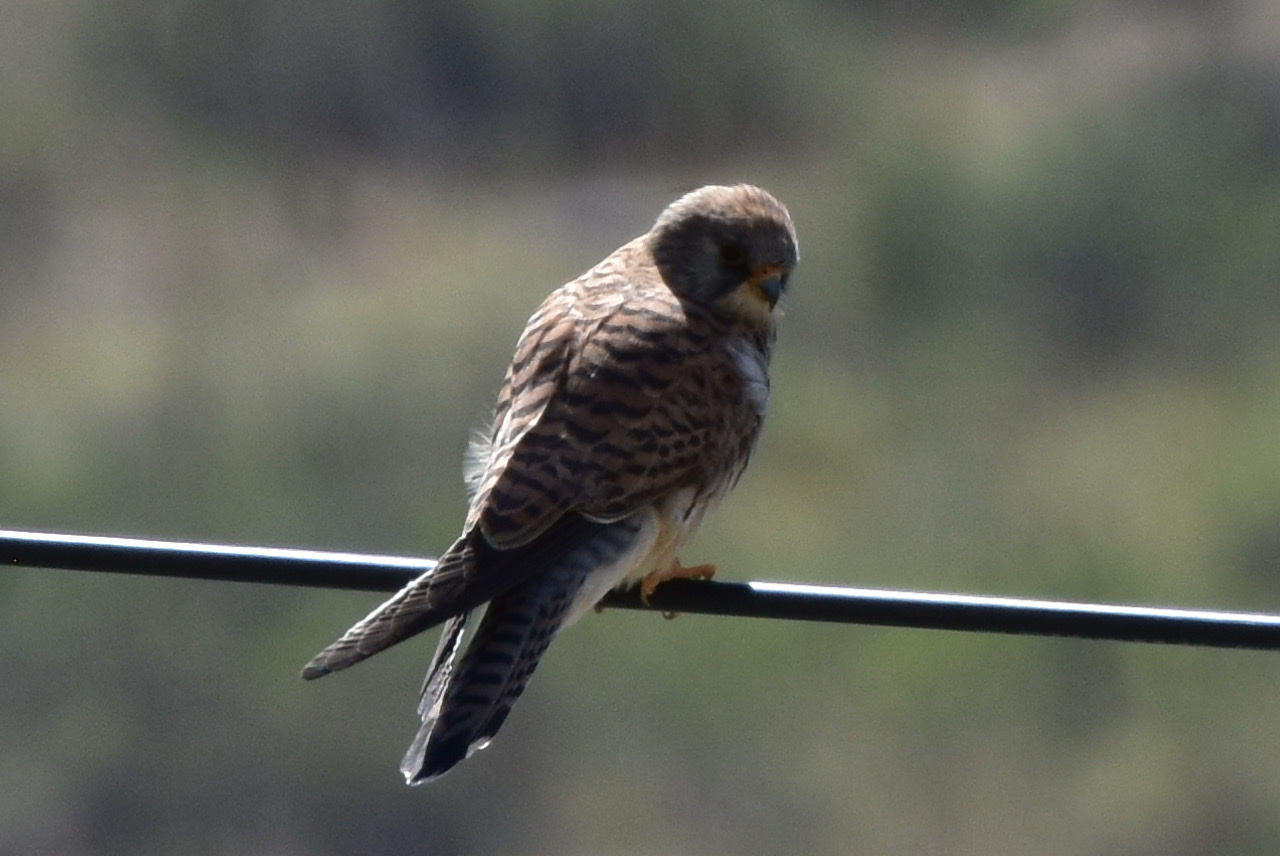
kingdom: Animalia
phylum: Chordata
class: Aves
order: Falconiformes
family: Falconidae
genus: Falco
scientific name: Falco naumanni
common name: Lesser kestrel
